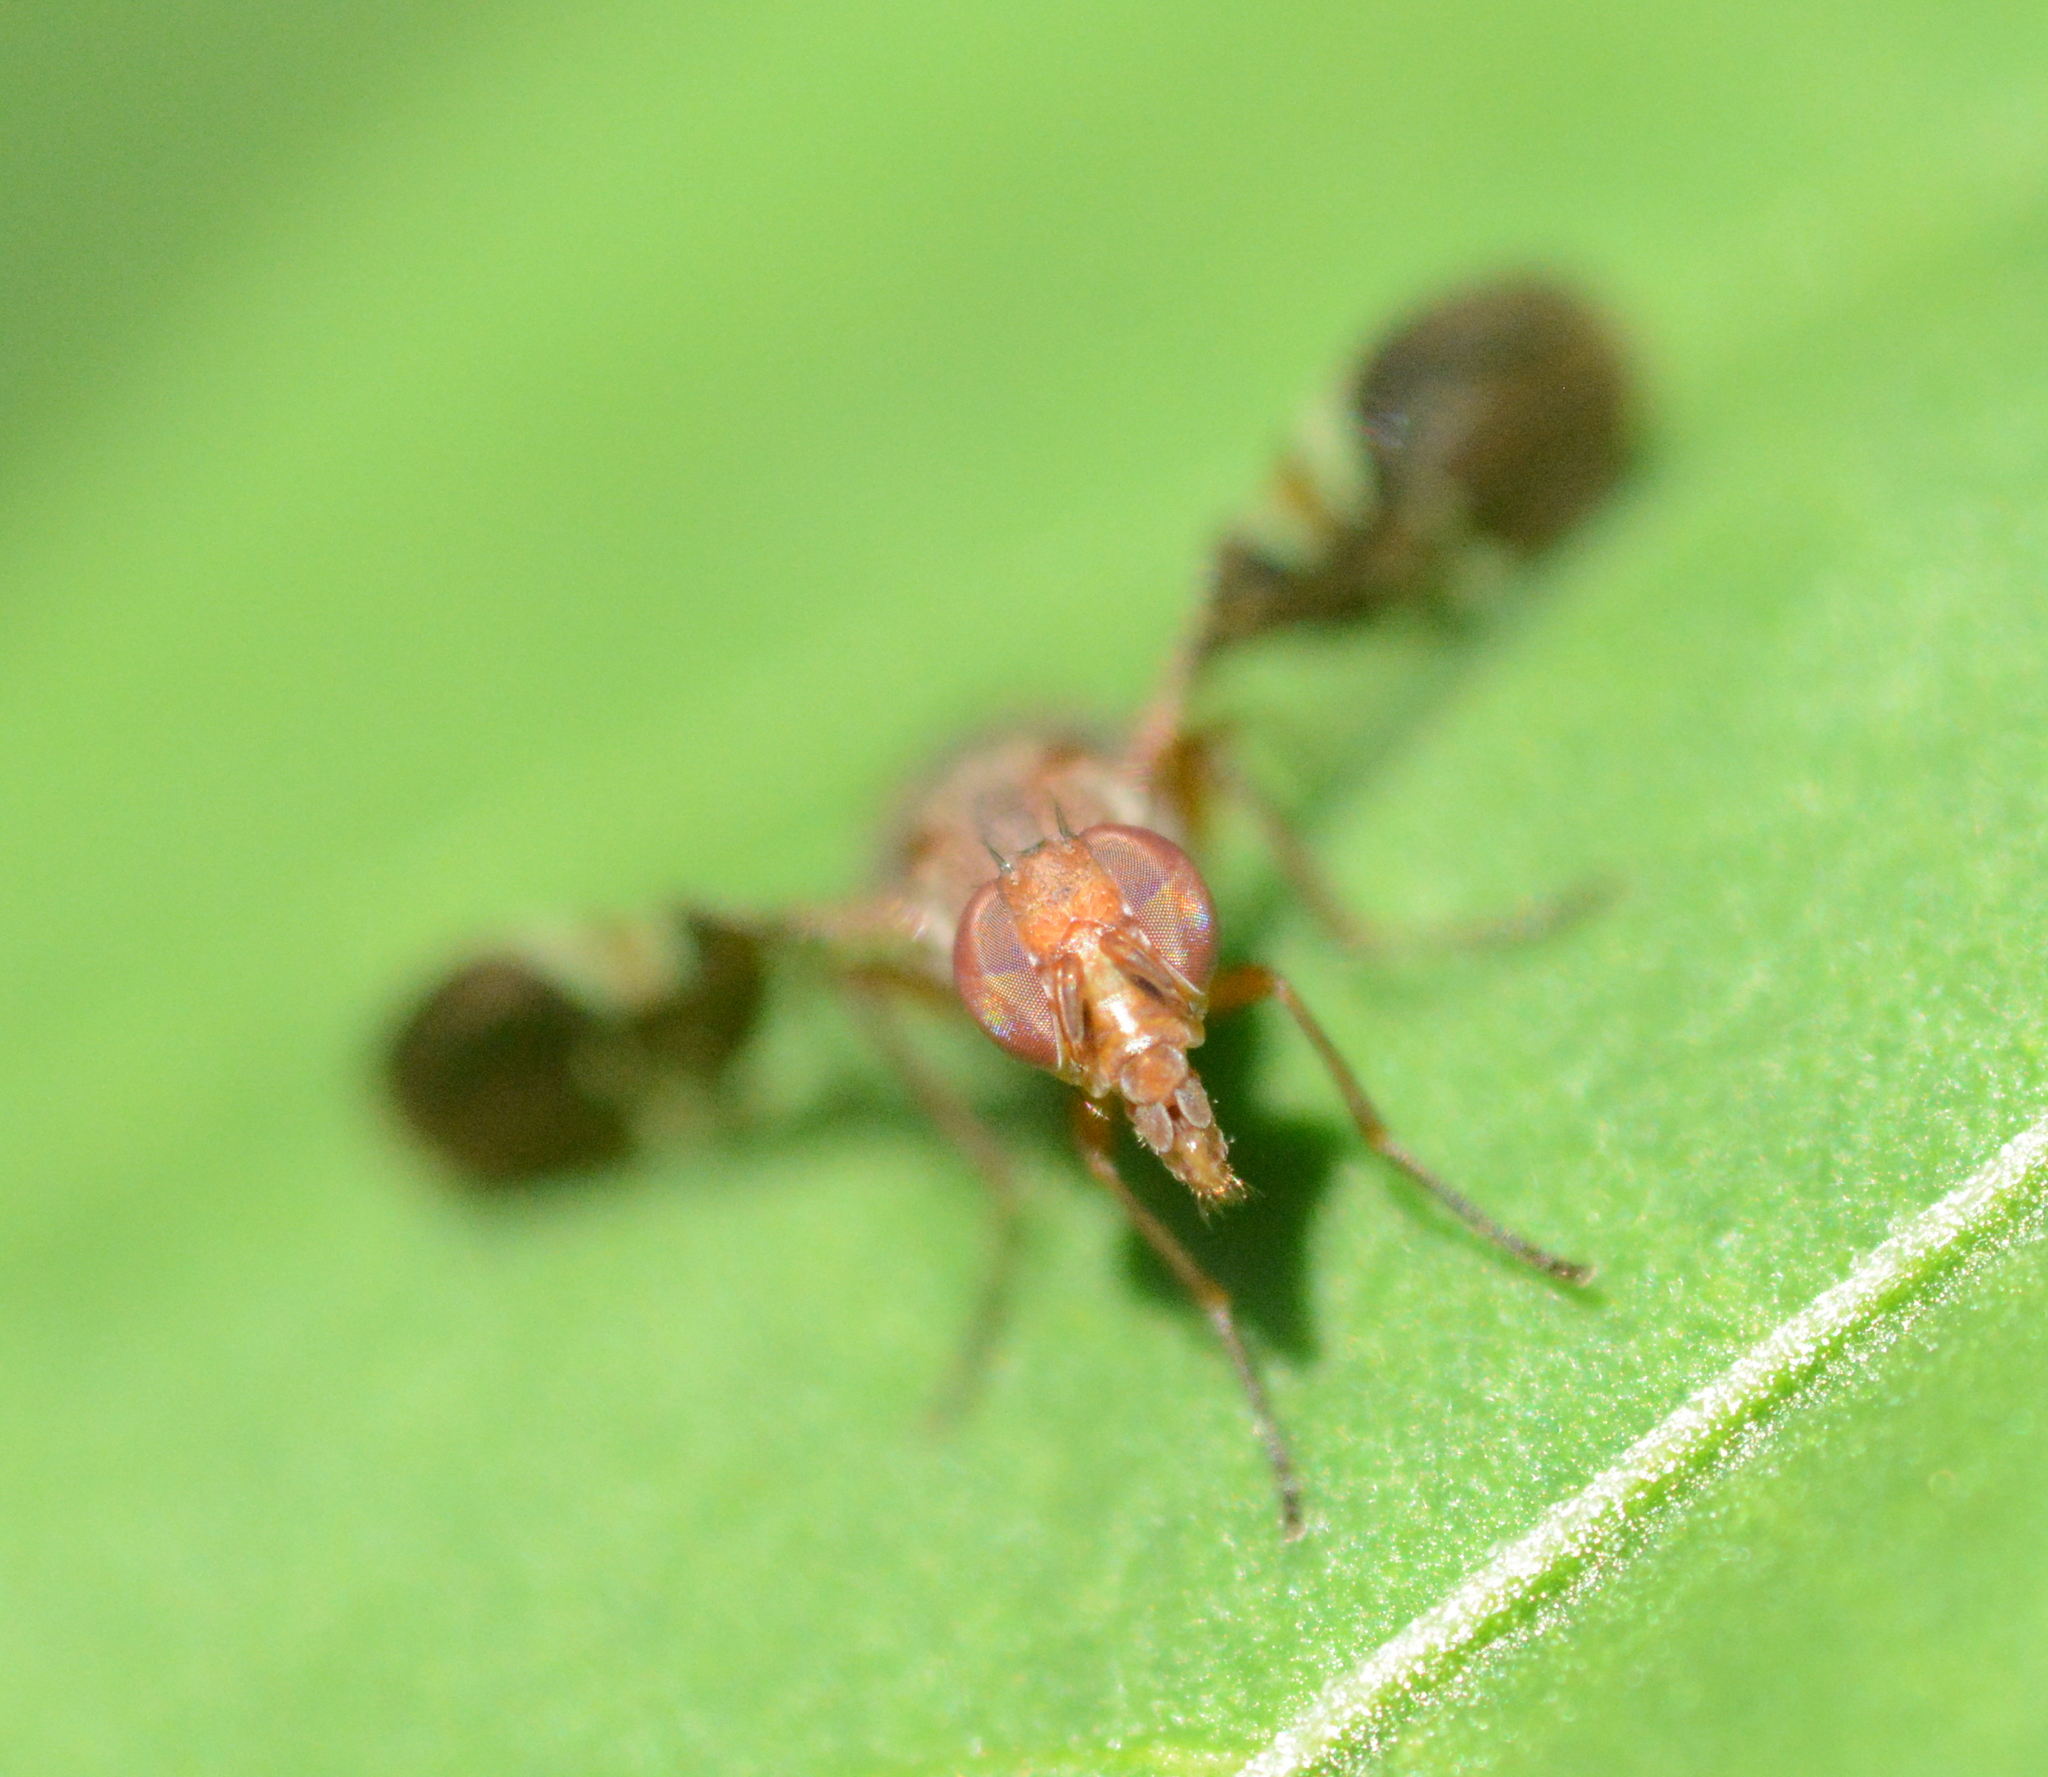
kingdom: Animalia
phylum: Arthropoda
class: Insecta
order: Diptera
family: Ulidiidae
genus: Delphinia
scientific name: Delphinia picta
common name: Common picture-winged fly
